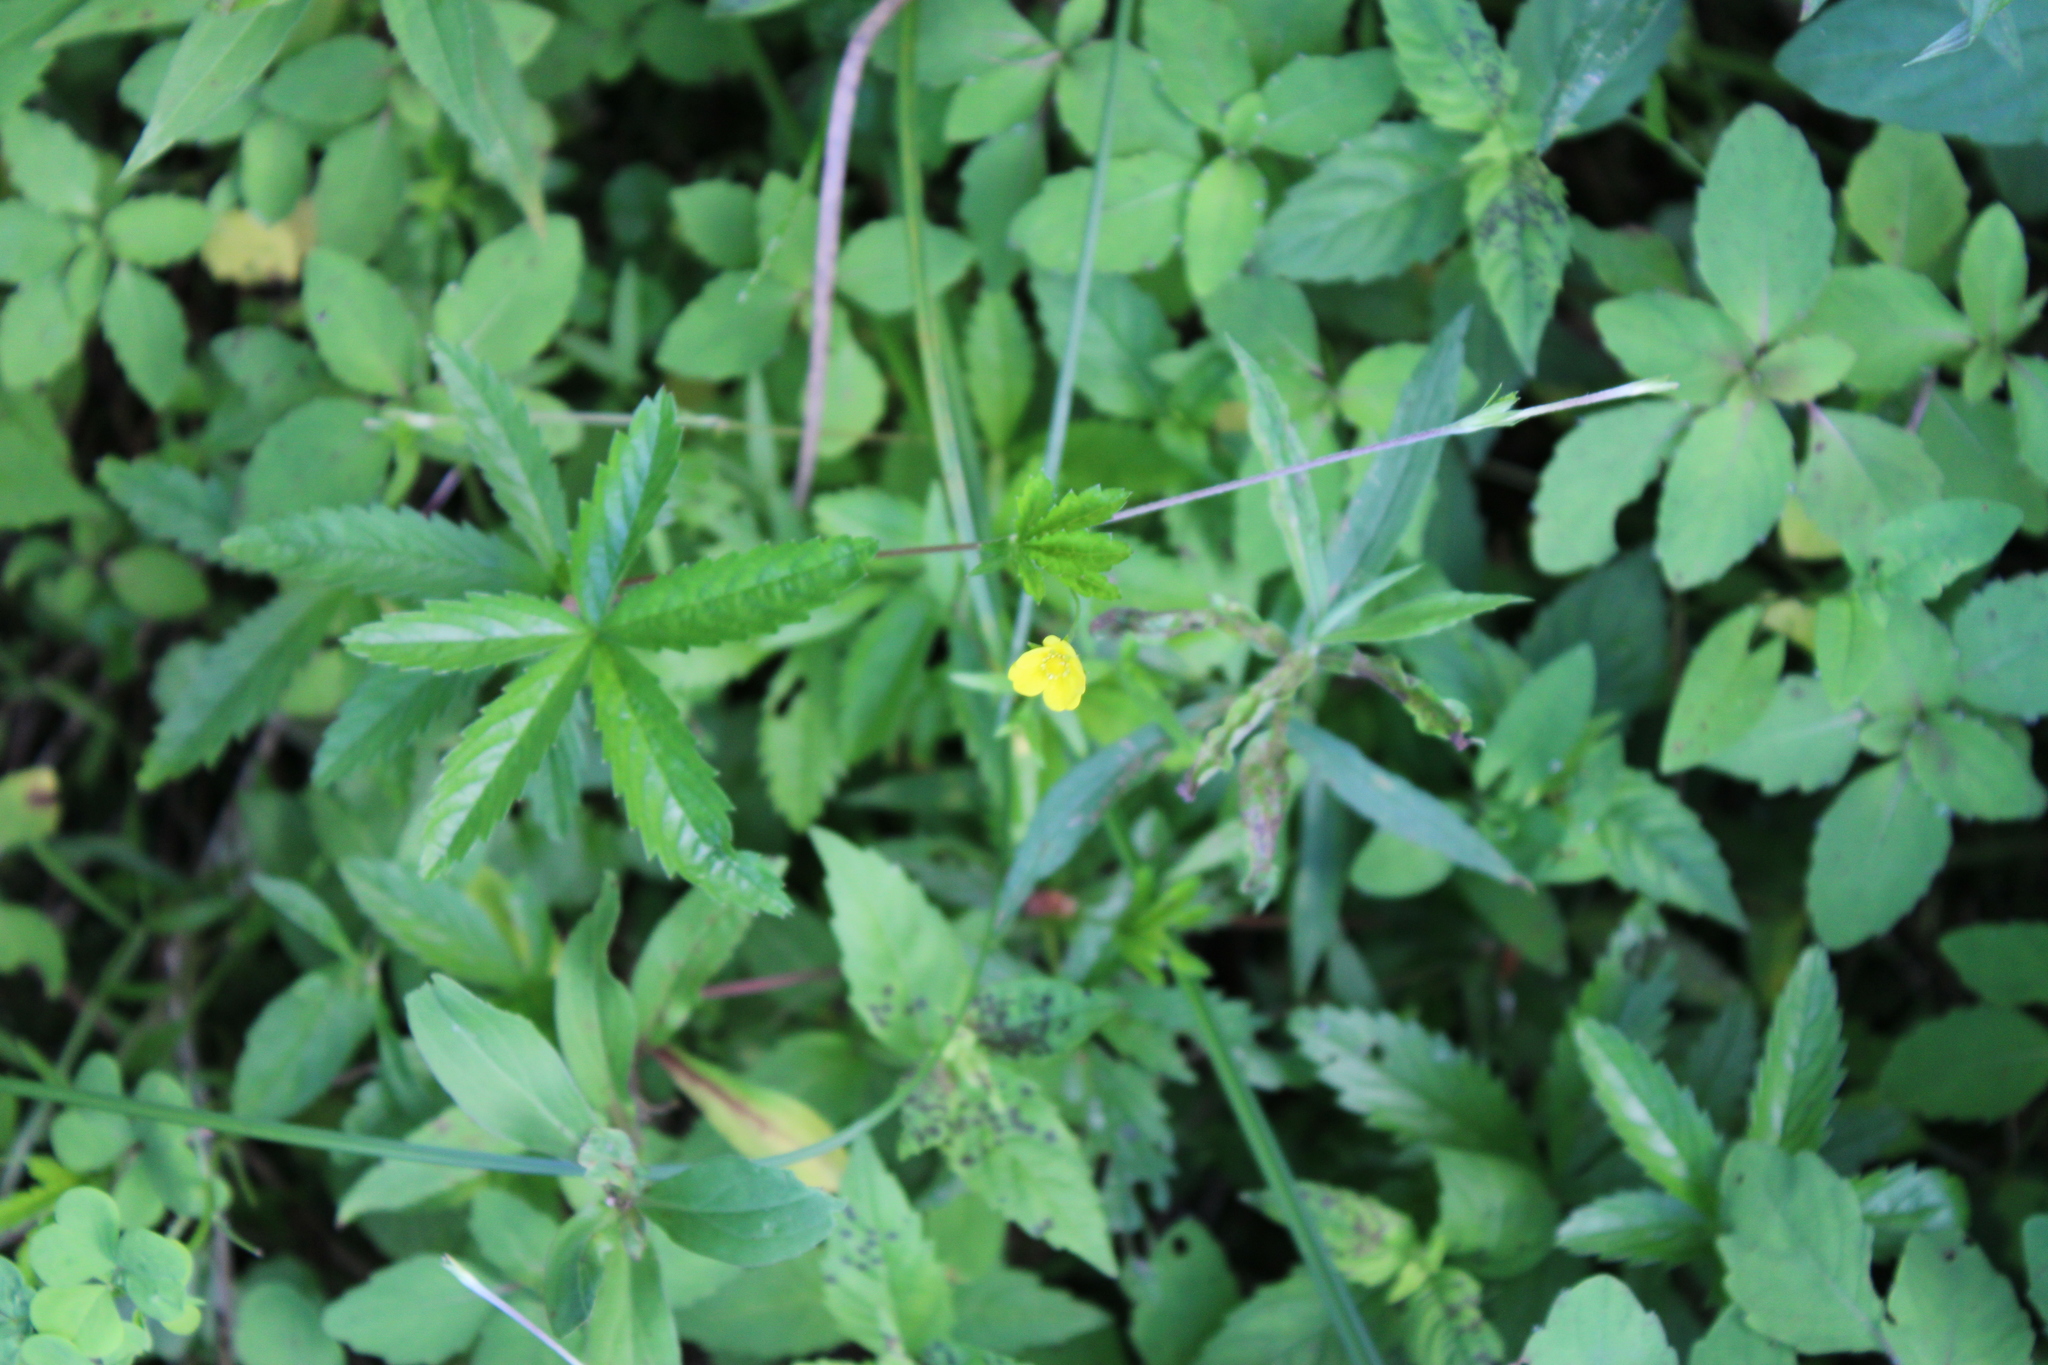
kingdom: Plantae
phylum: Tracheophyta
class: Magnoliopsida
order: Rosales
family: Rosaceae
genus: Potentilla
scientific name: Potentilla simplex
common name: Old field cinquefoil
